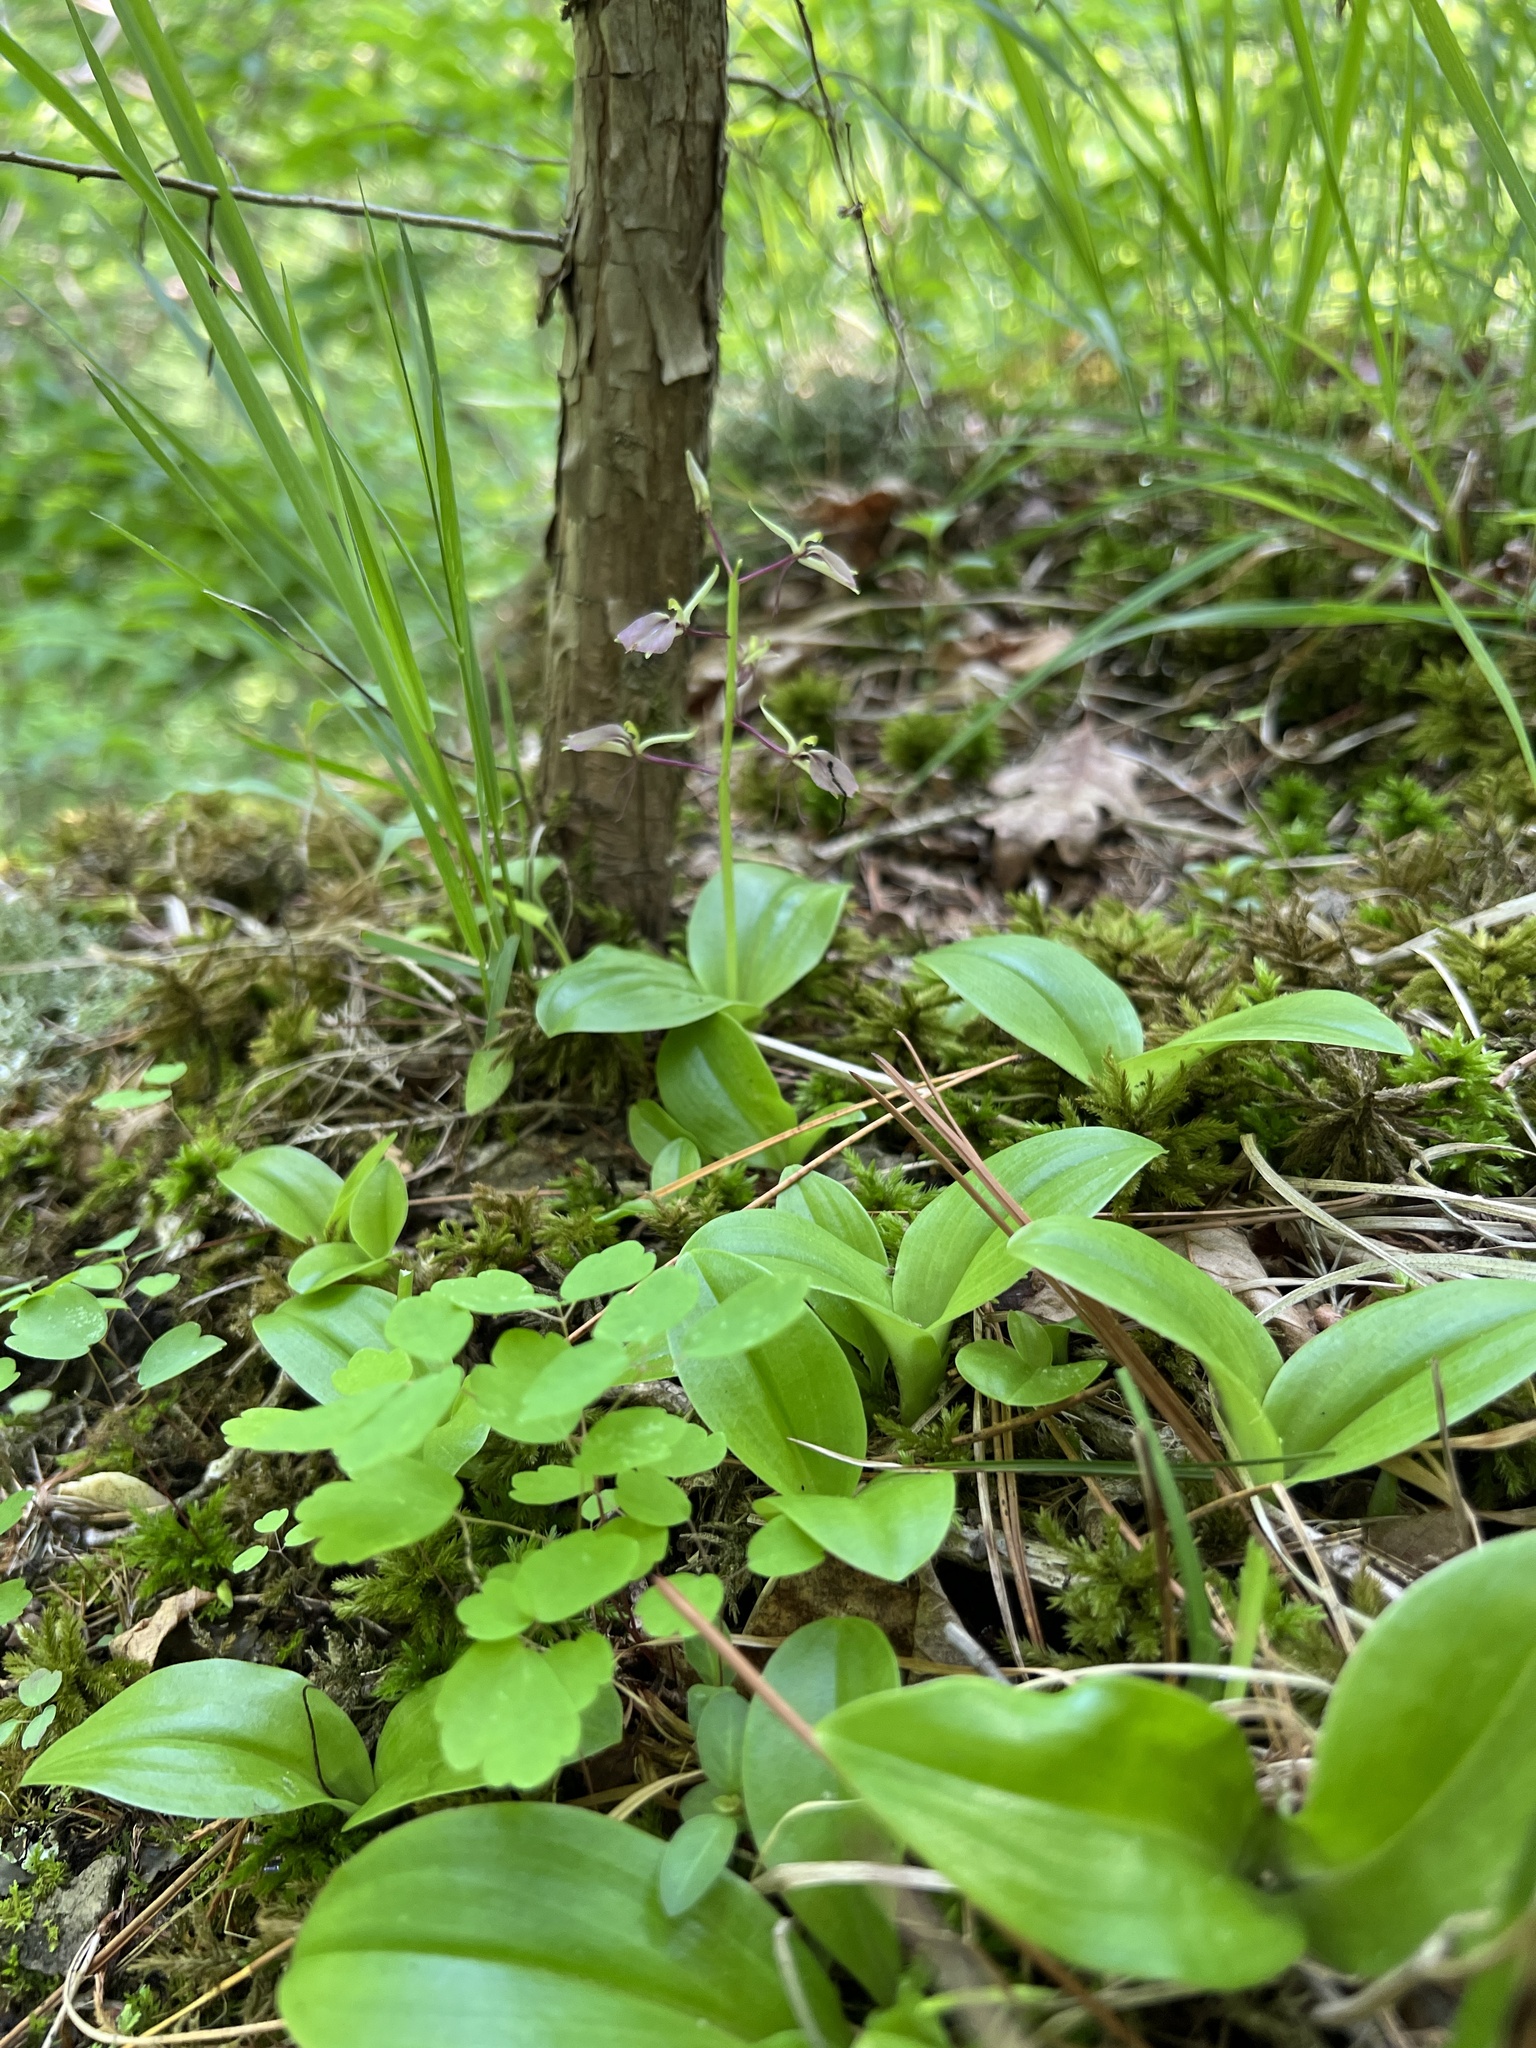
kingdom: Plantae
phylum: Tracheophyta
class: Liliopsida
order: Asparagales
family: Orchidaceae
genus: Liparis
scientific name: Liparis liliifolia
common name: Brown wide-lip orchid
